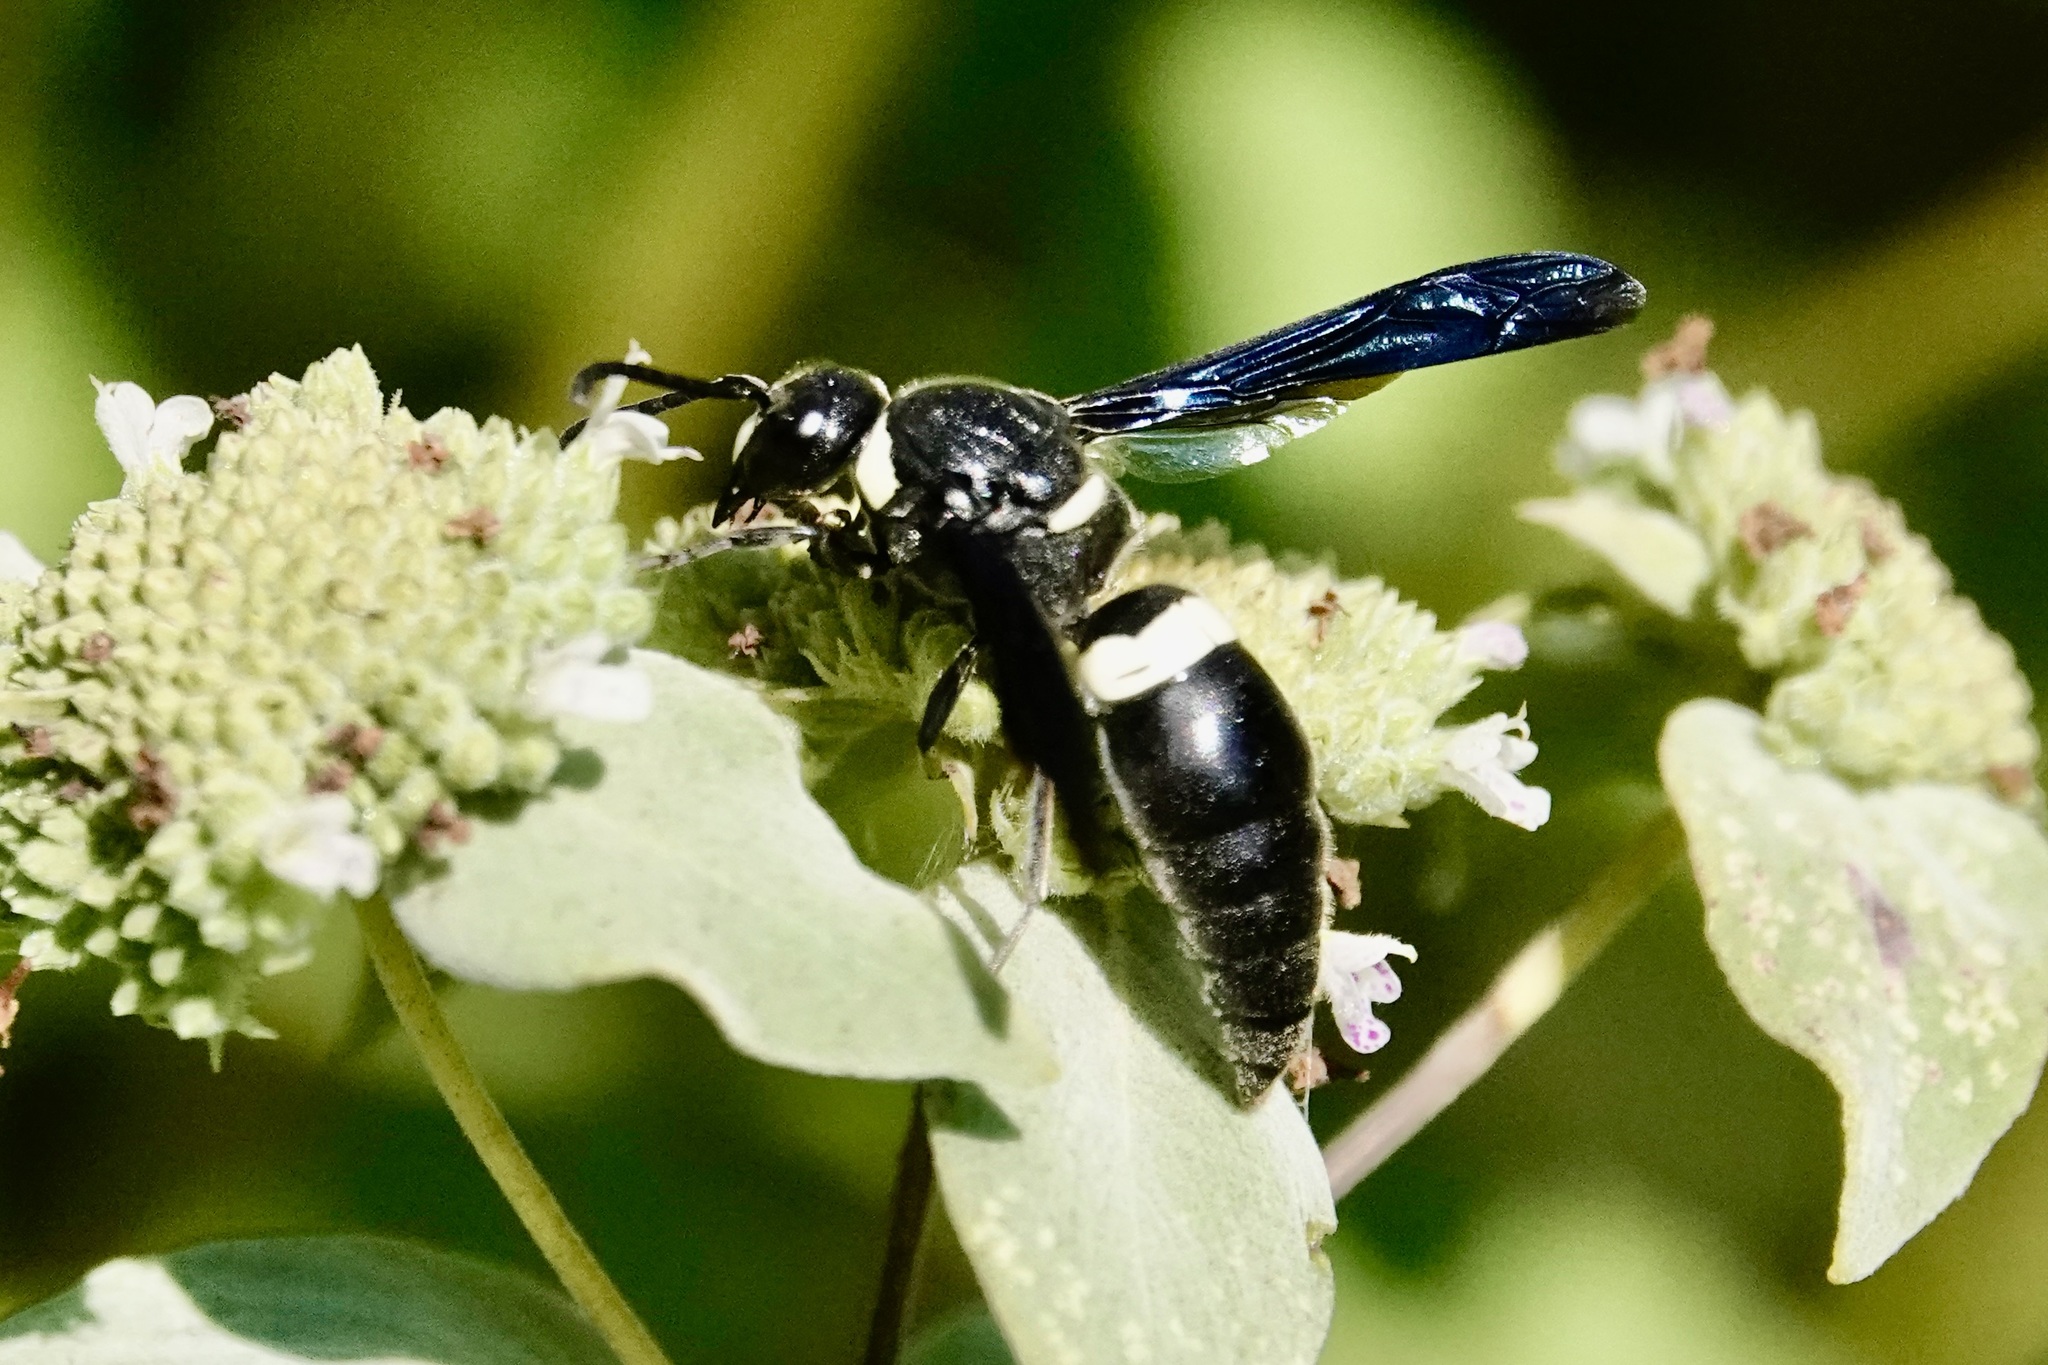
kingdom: Animalia
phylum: Arthropoda
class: Insecta
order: Hymenoptera
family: Eumenidae
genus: Monobia
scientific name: Monobia quadridens
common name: Four-toothed mason wasp
